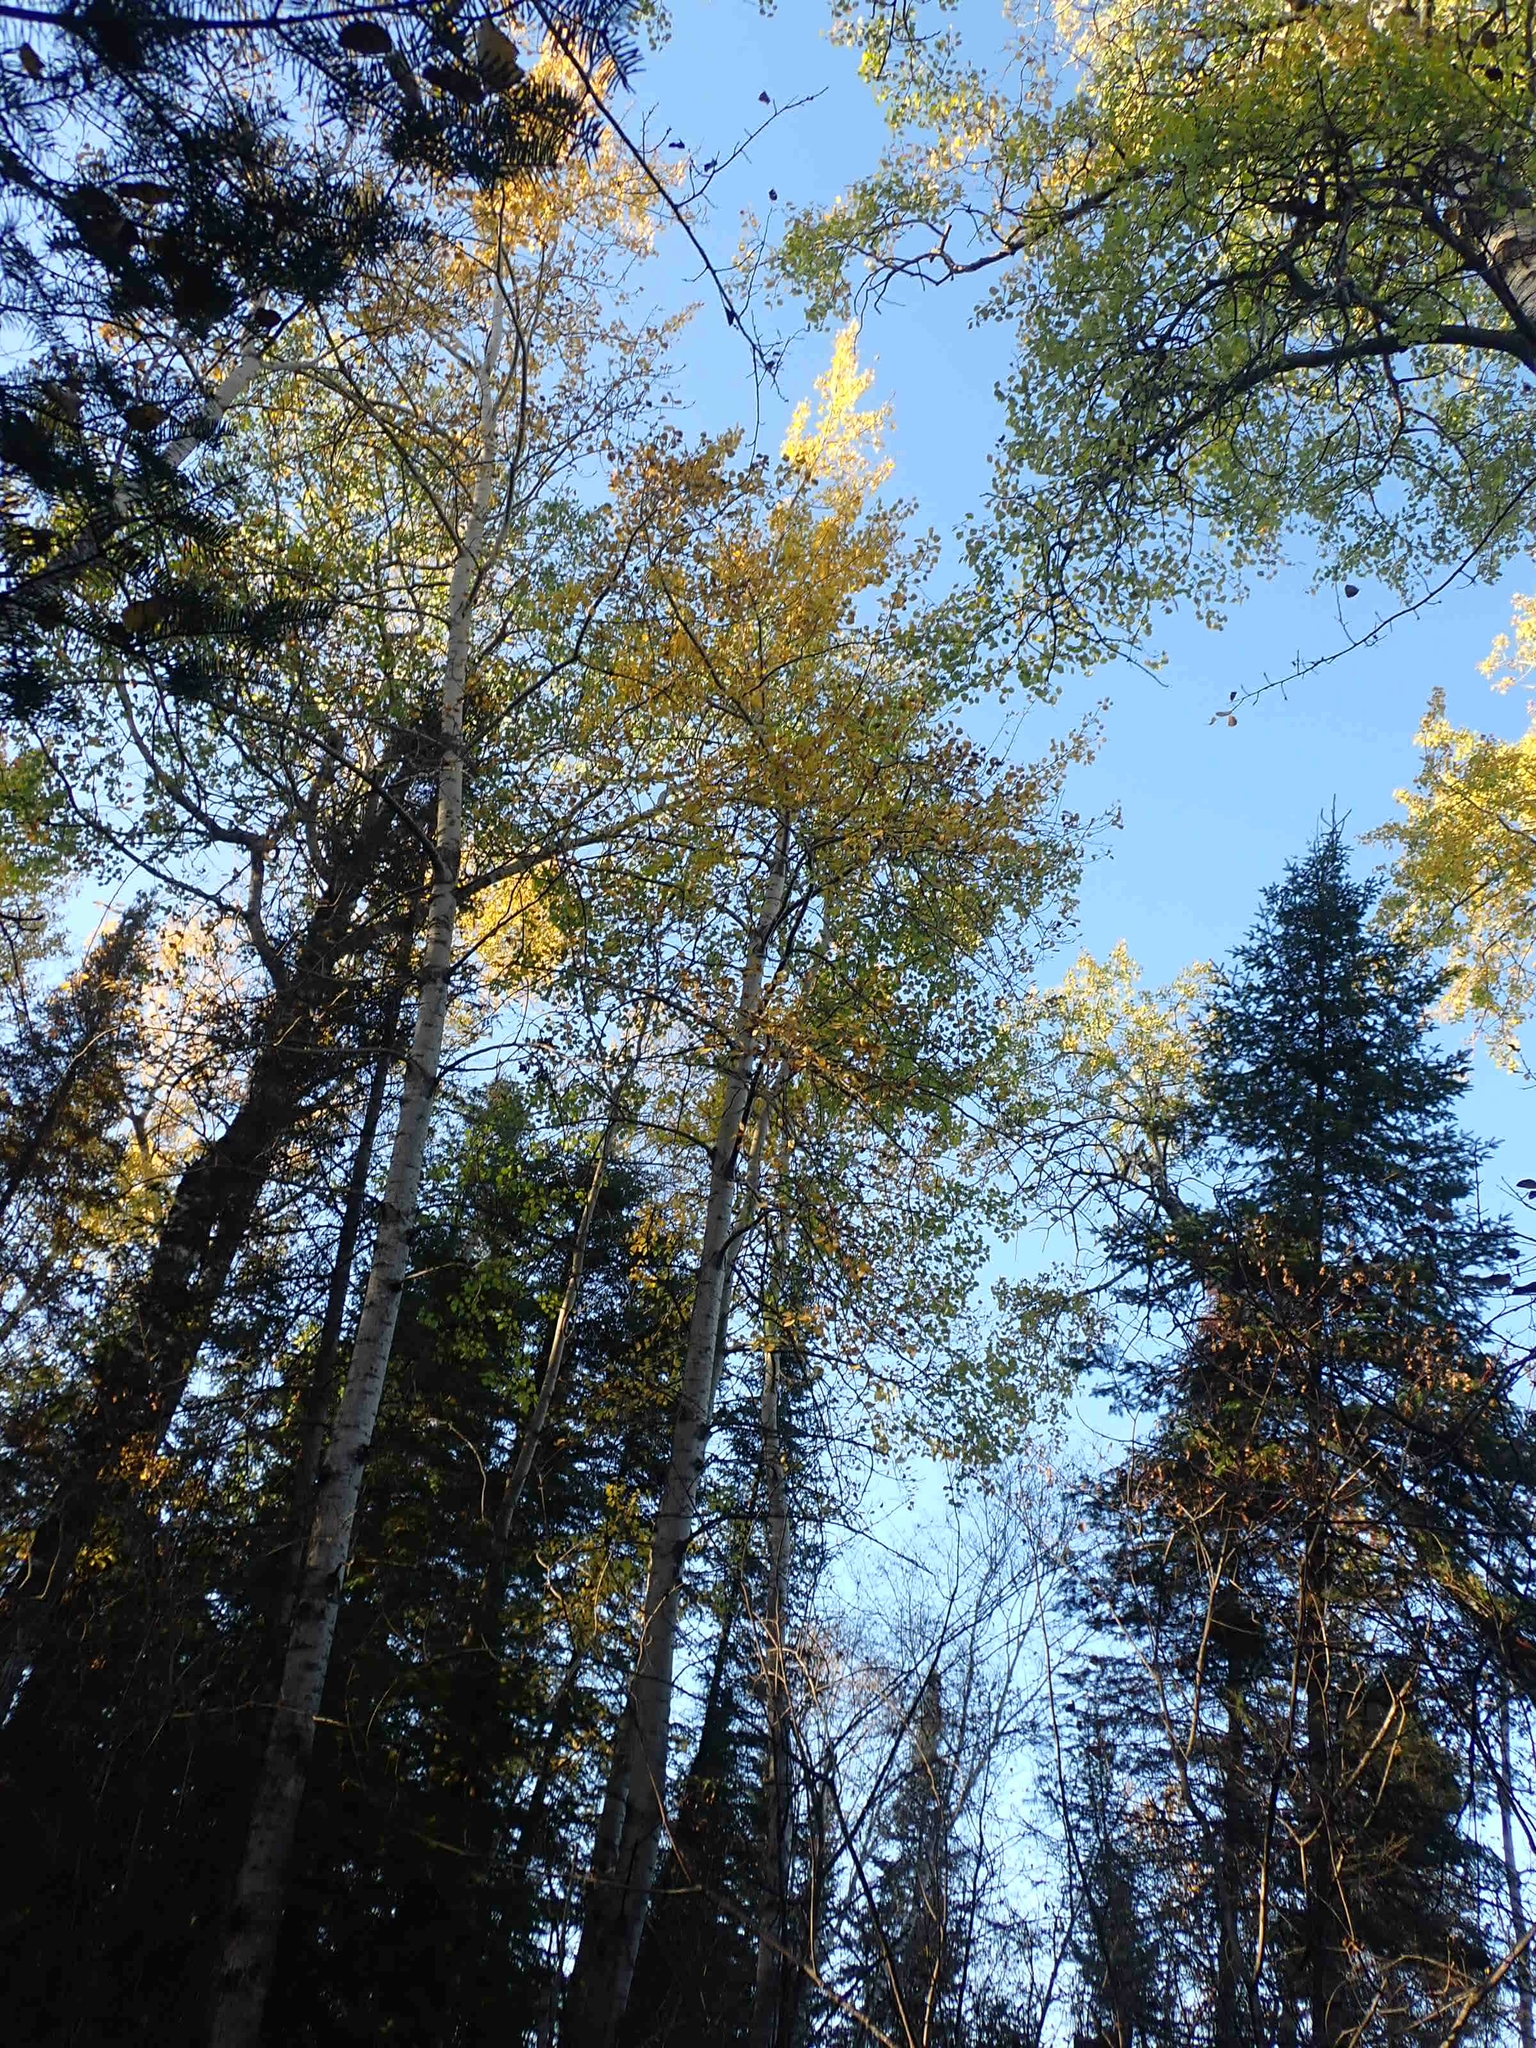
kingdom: Plantae
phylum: Tracheophyta
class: Magnoliopsida
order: Malpighiales
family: Salicaceae
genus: Populus
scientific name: Populus tremuloides
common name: Quaking aspen
